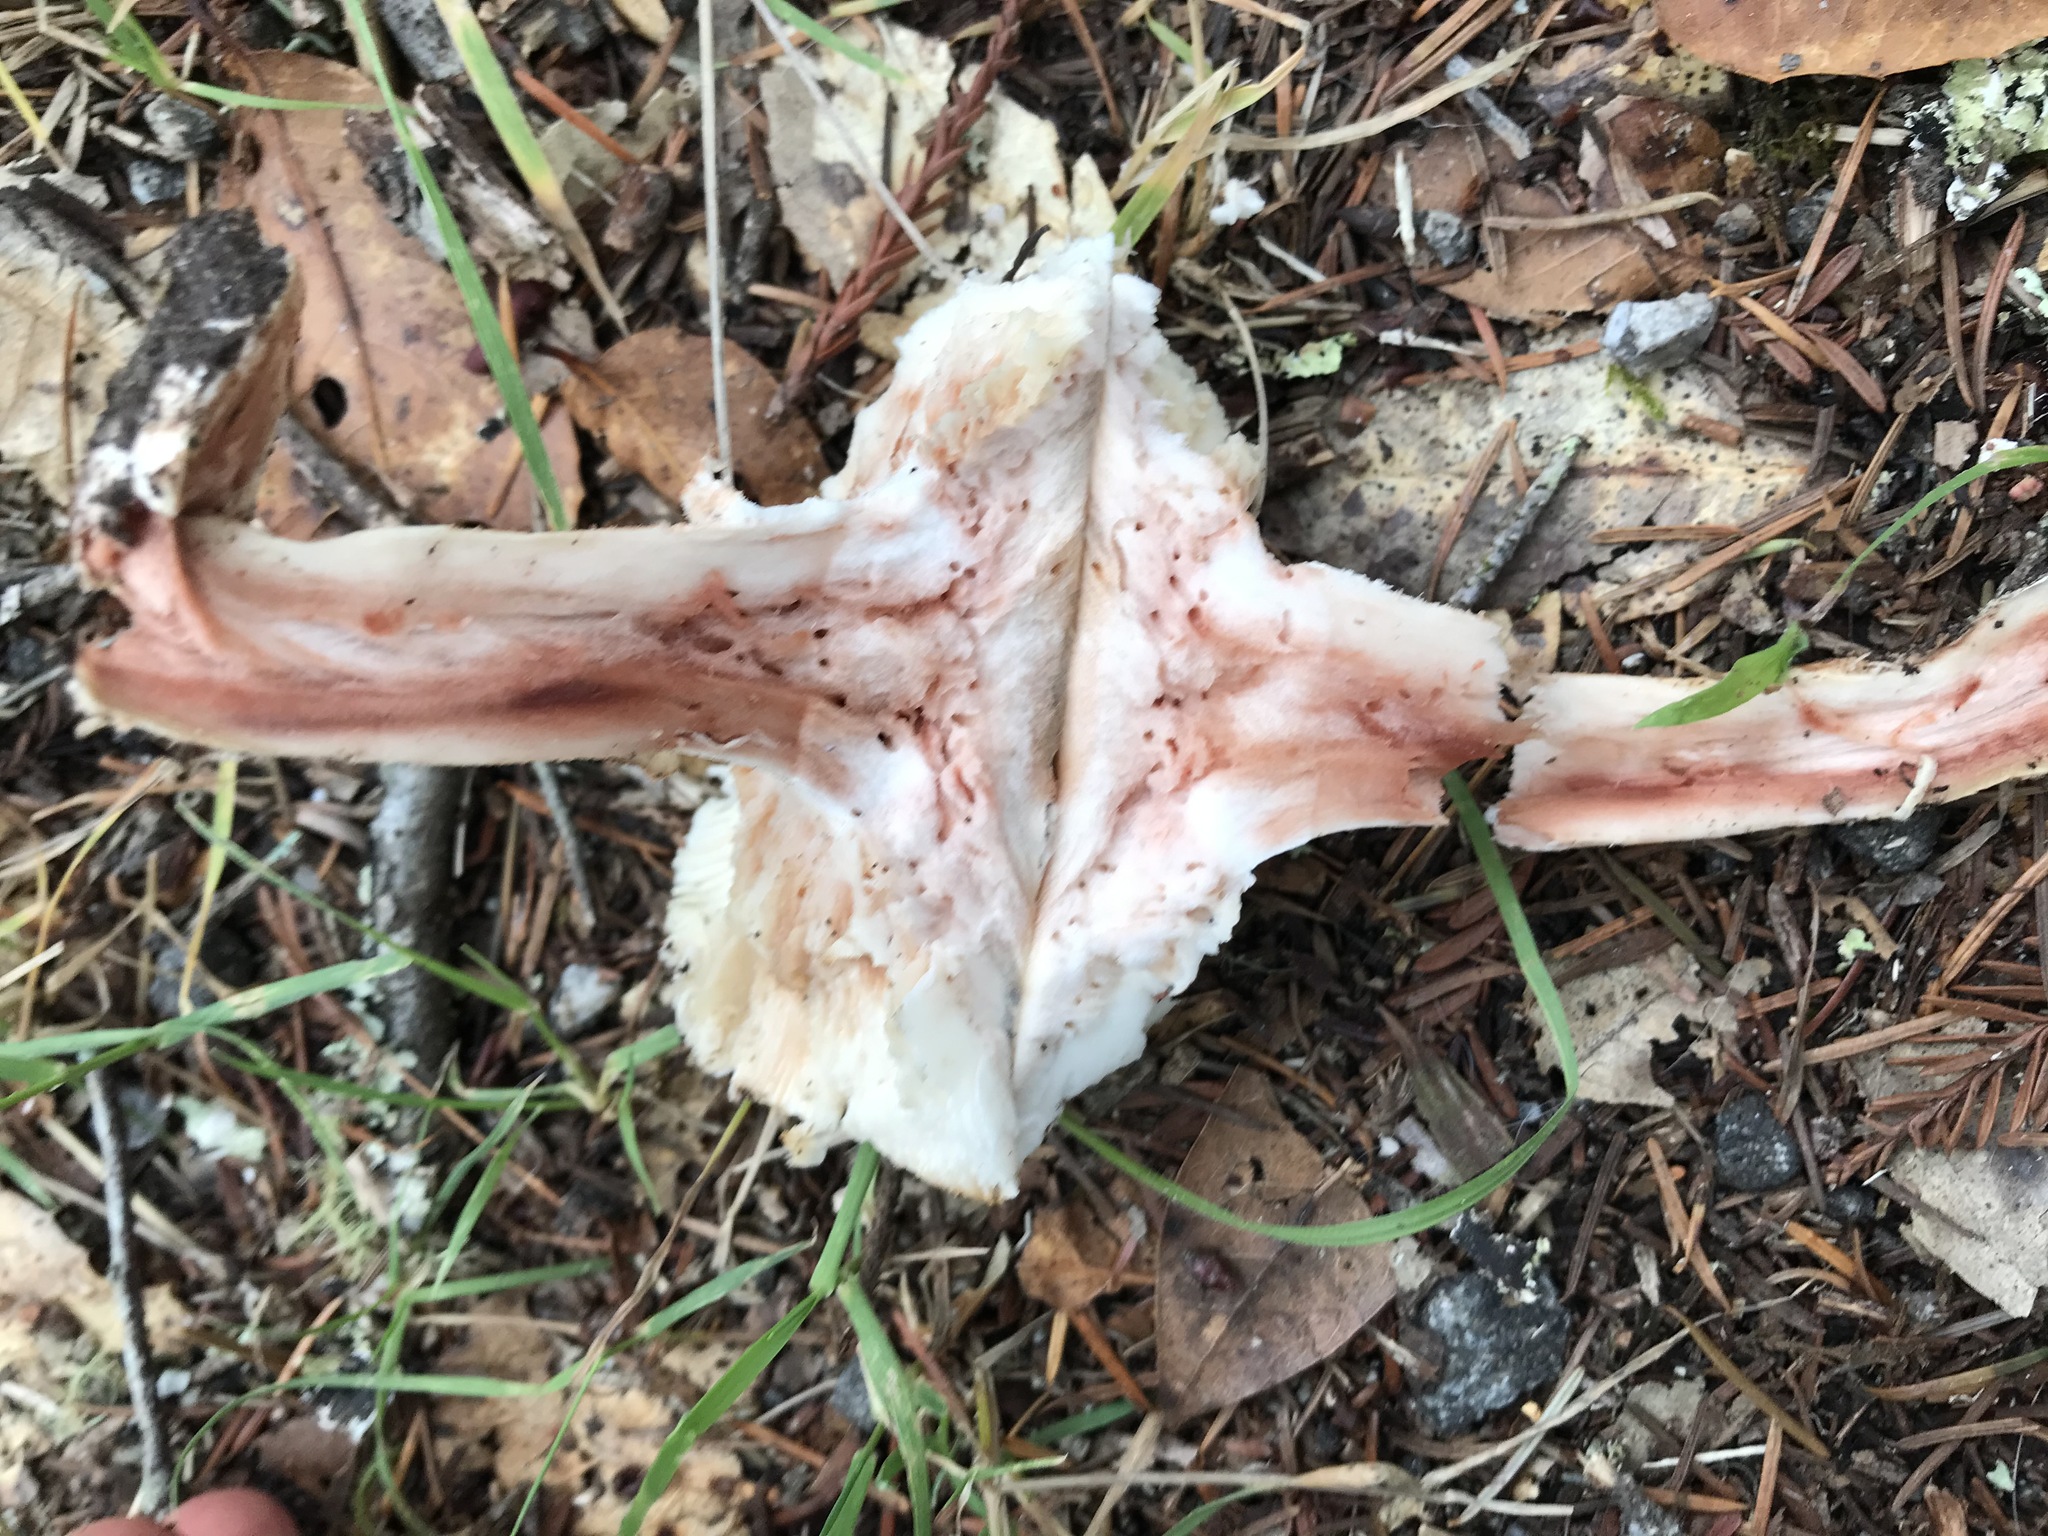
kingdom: Fungi
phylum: Basidiomycota
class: Agaricomycetes
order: Agaricales
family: Amanitaceae
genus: Amanita
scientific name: Amanita novinupta
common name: Blushing bride
